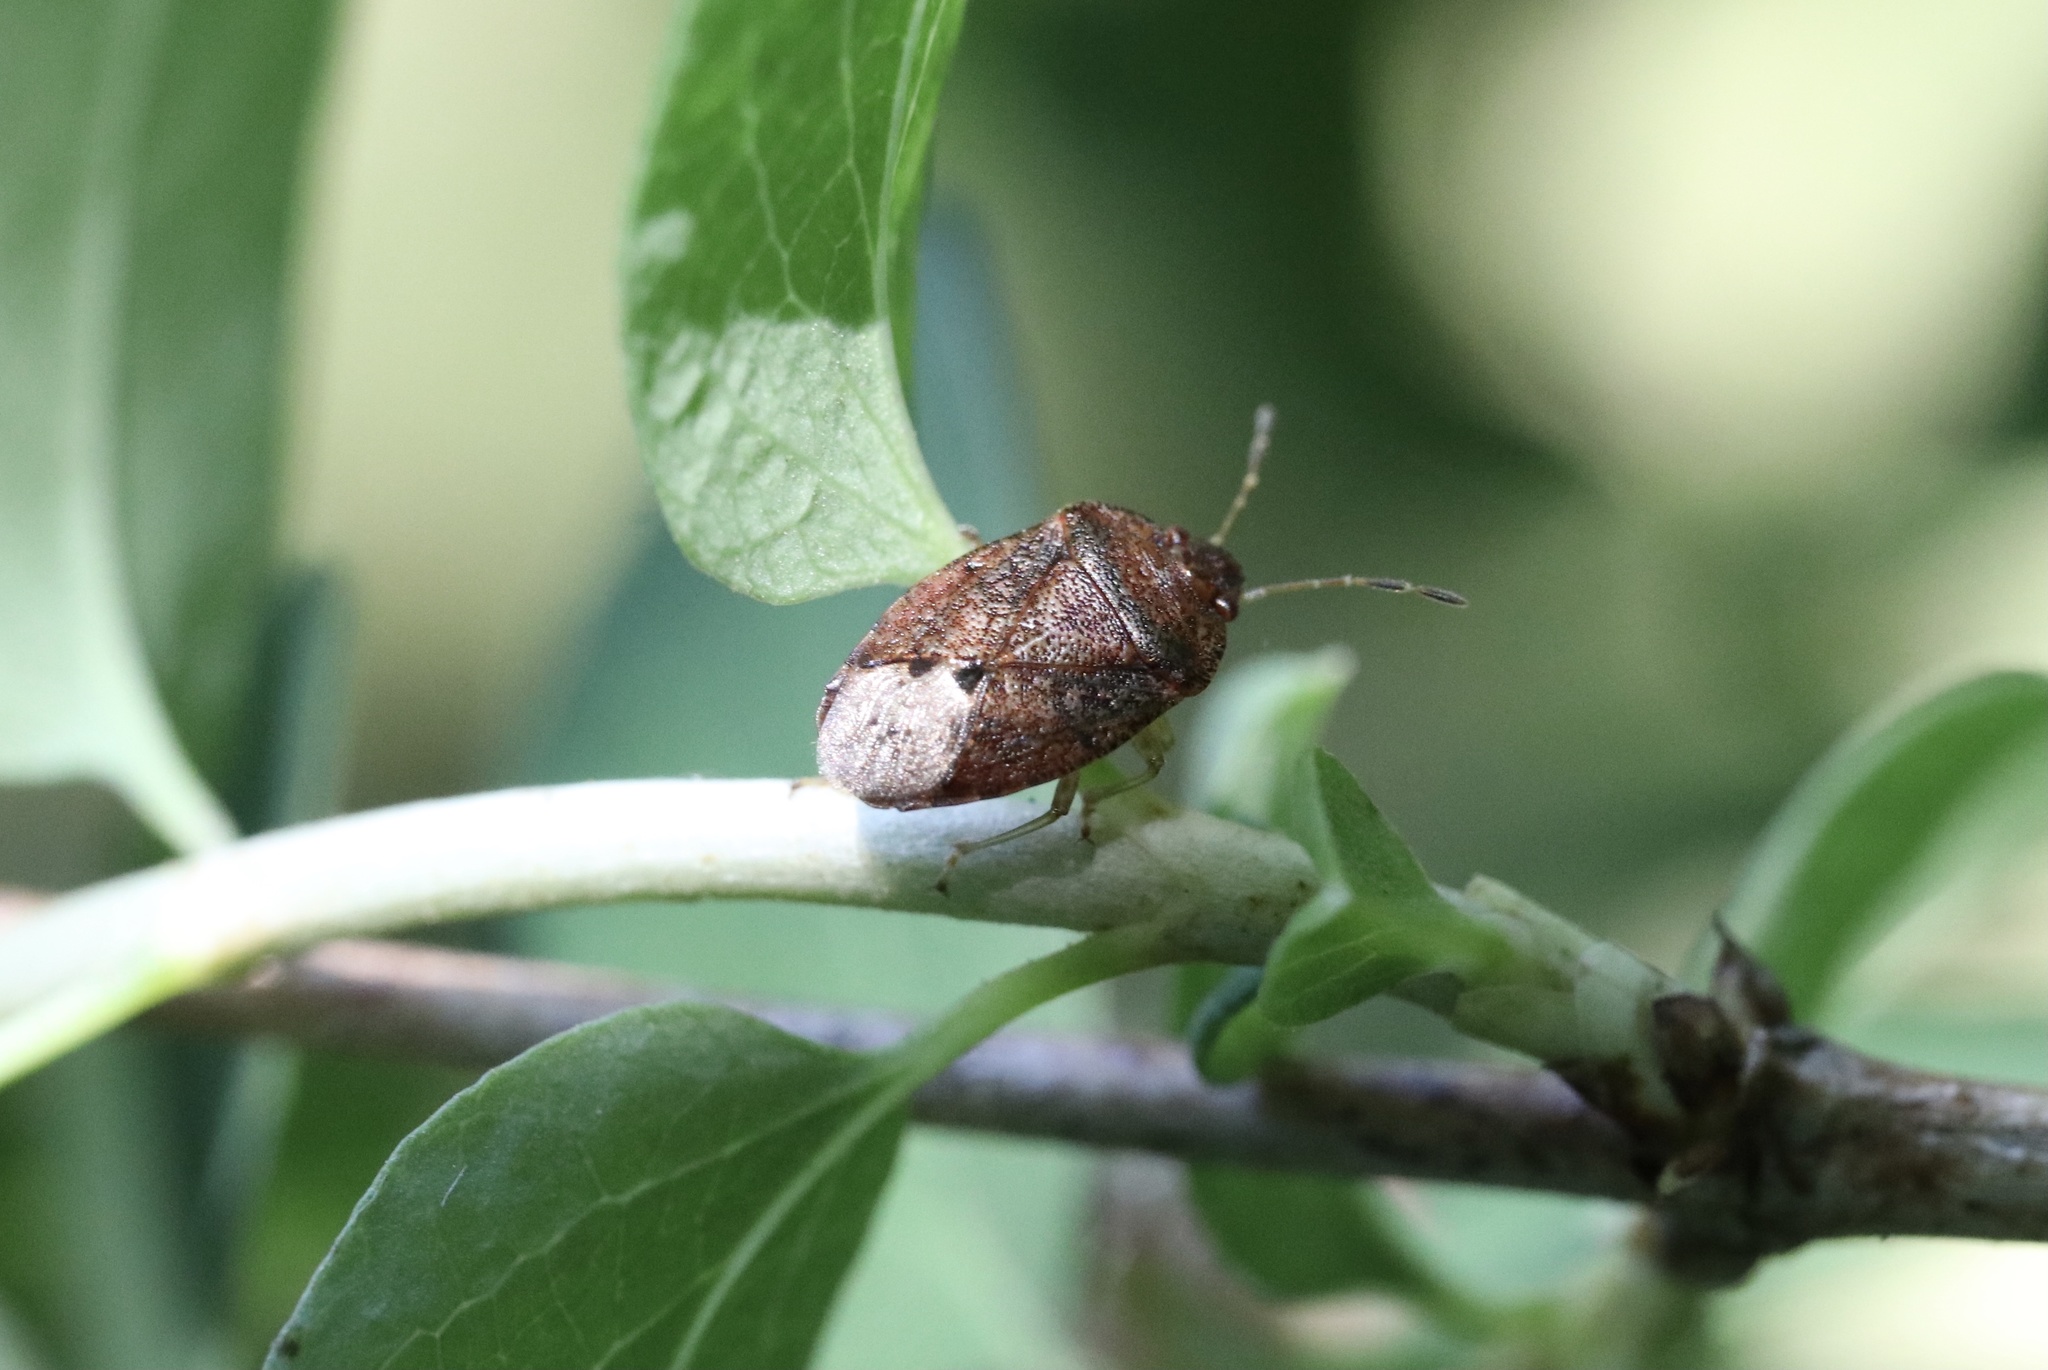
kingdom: Animalia
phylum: Arthropoda
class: Insecta
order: Hemiptera
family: Acanthosomatidae
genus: Acrophyma
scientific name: Acrophyma cumingii
